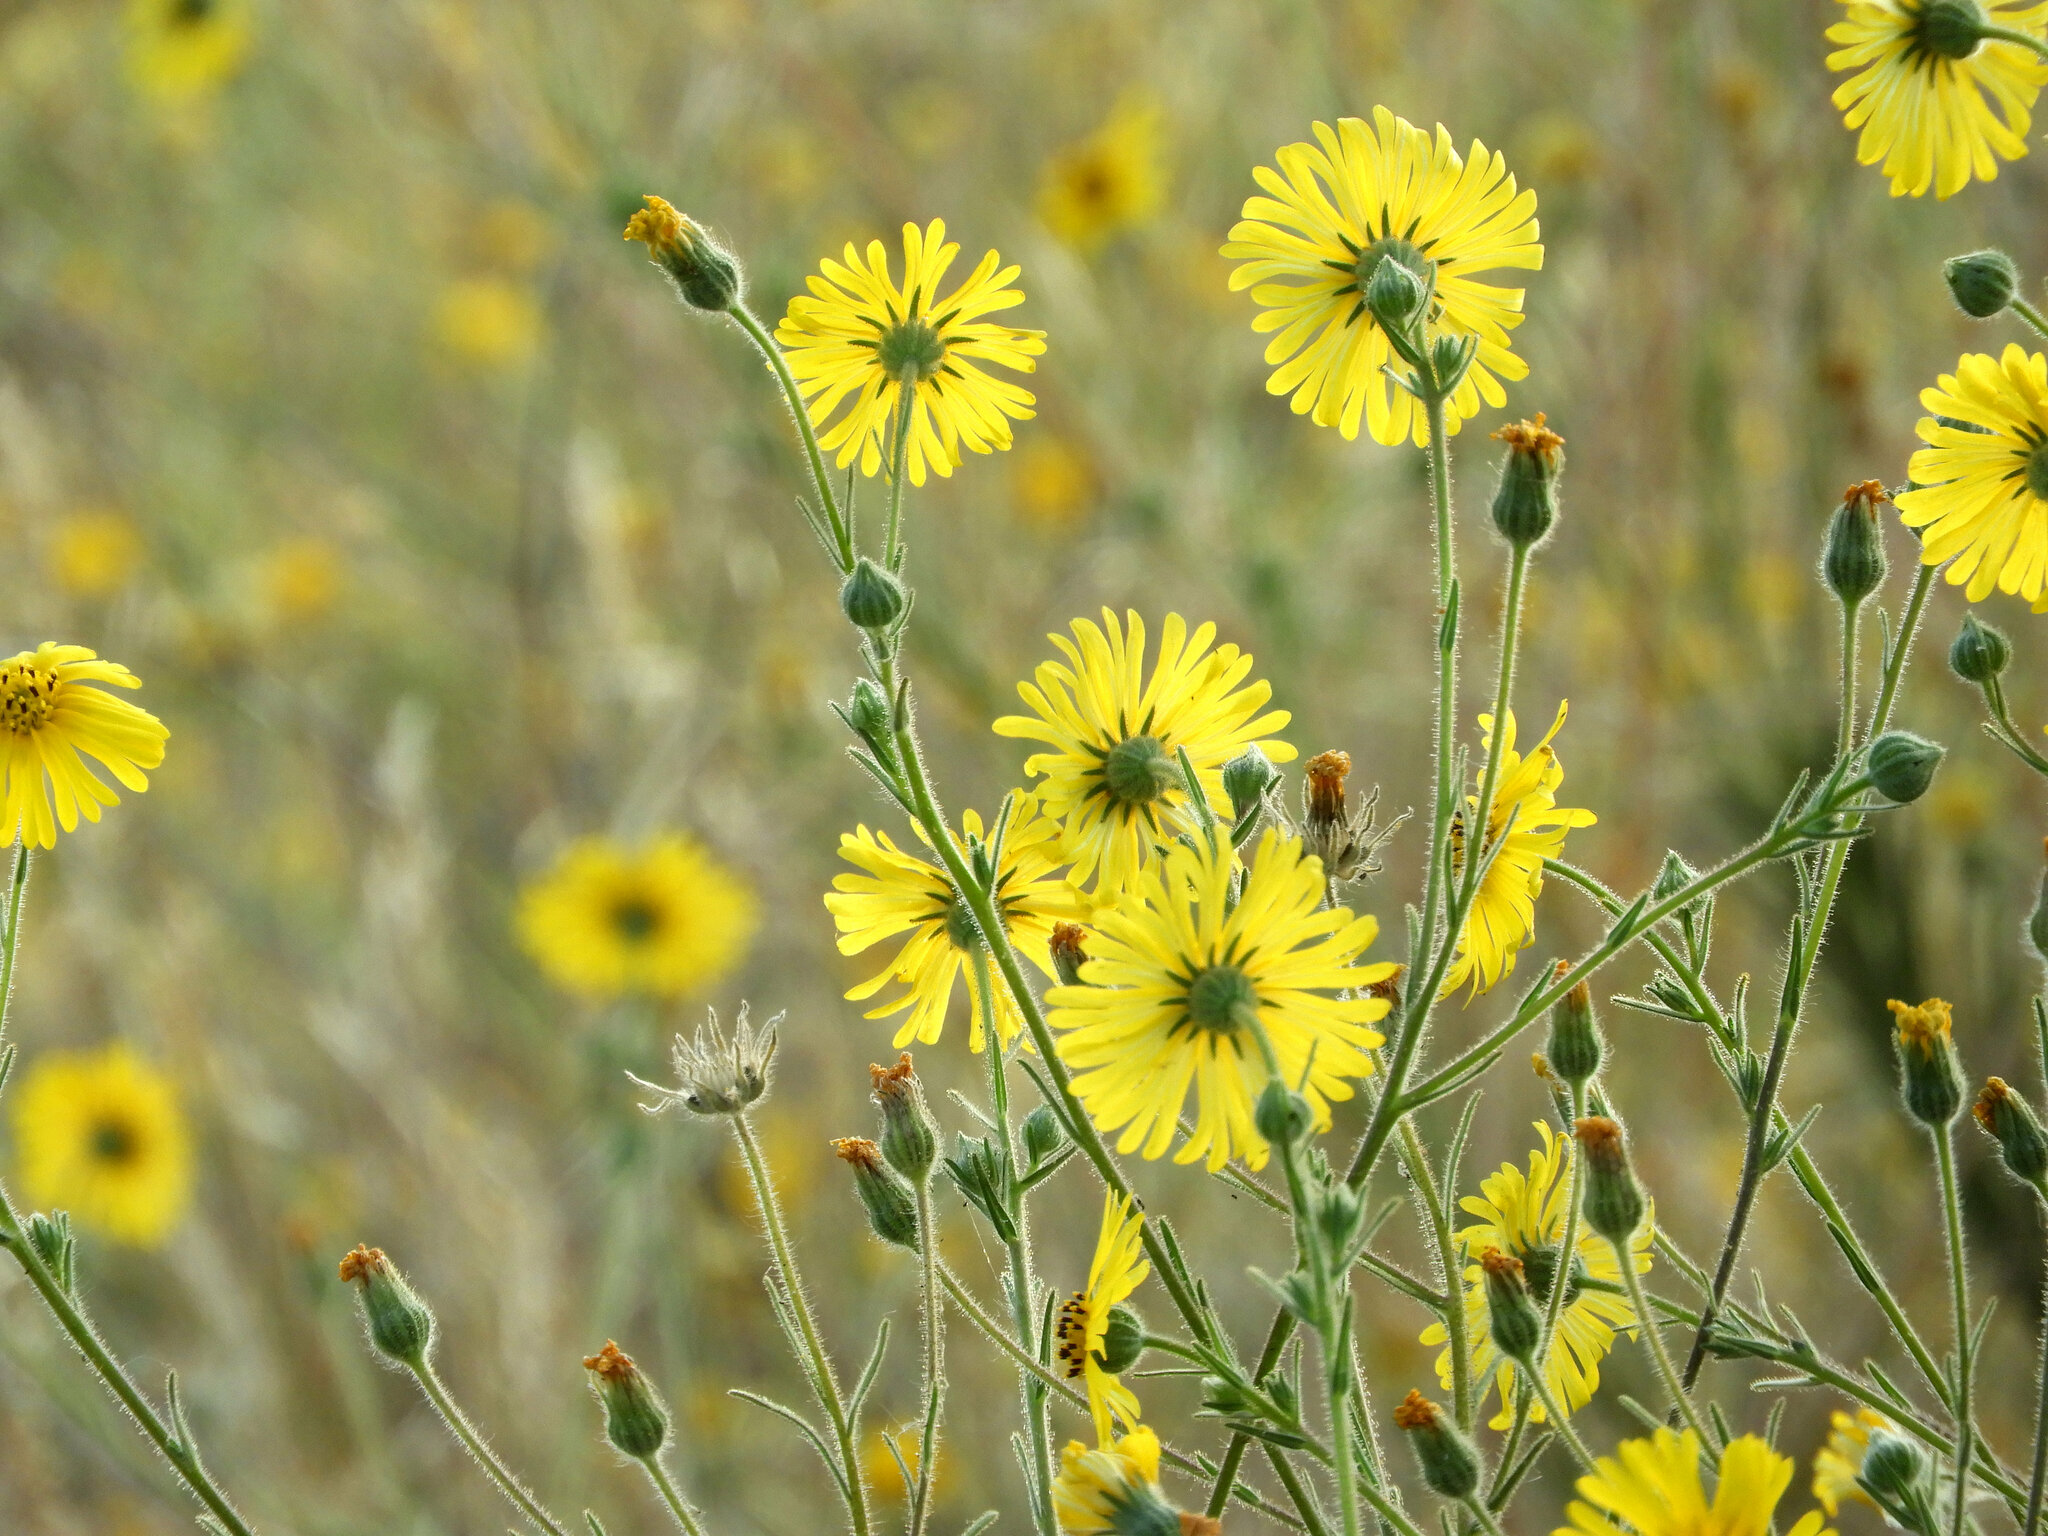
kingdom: Plantae
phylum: Tracheophyta
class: Magnoliopsida
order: Asterales
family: Asteraceae
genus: Madia
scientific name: Madia elegans
